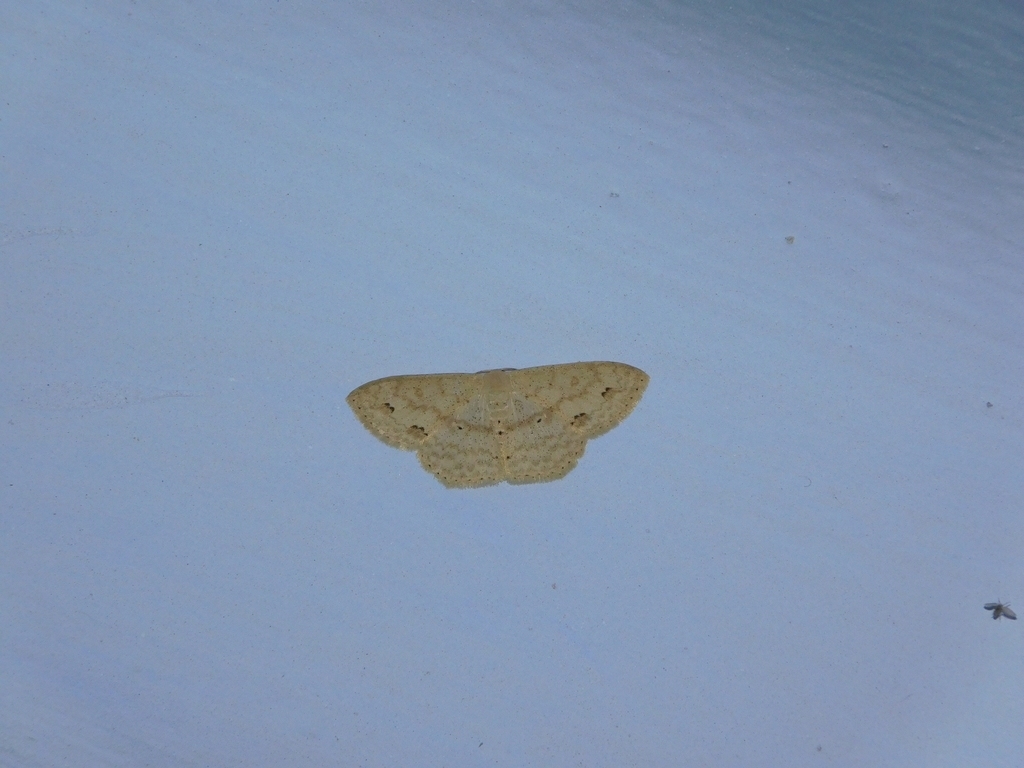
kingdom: Animalia
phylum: Arthropoda
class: Insecta
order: Lepidoptera
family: Geometridae
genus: Scopula
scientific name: Scopula addictaria
